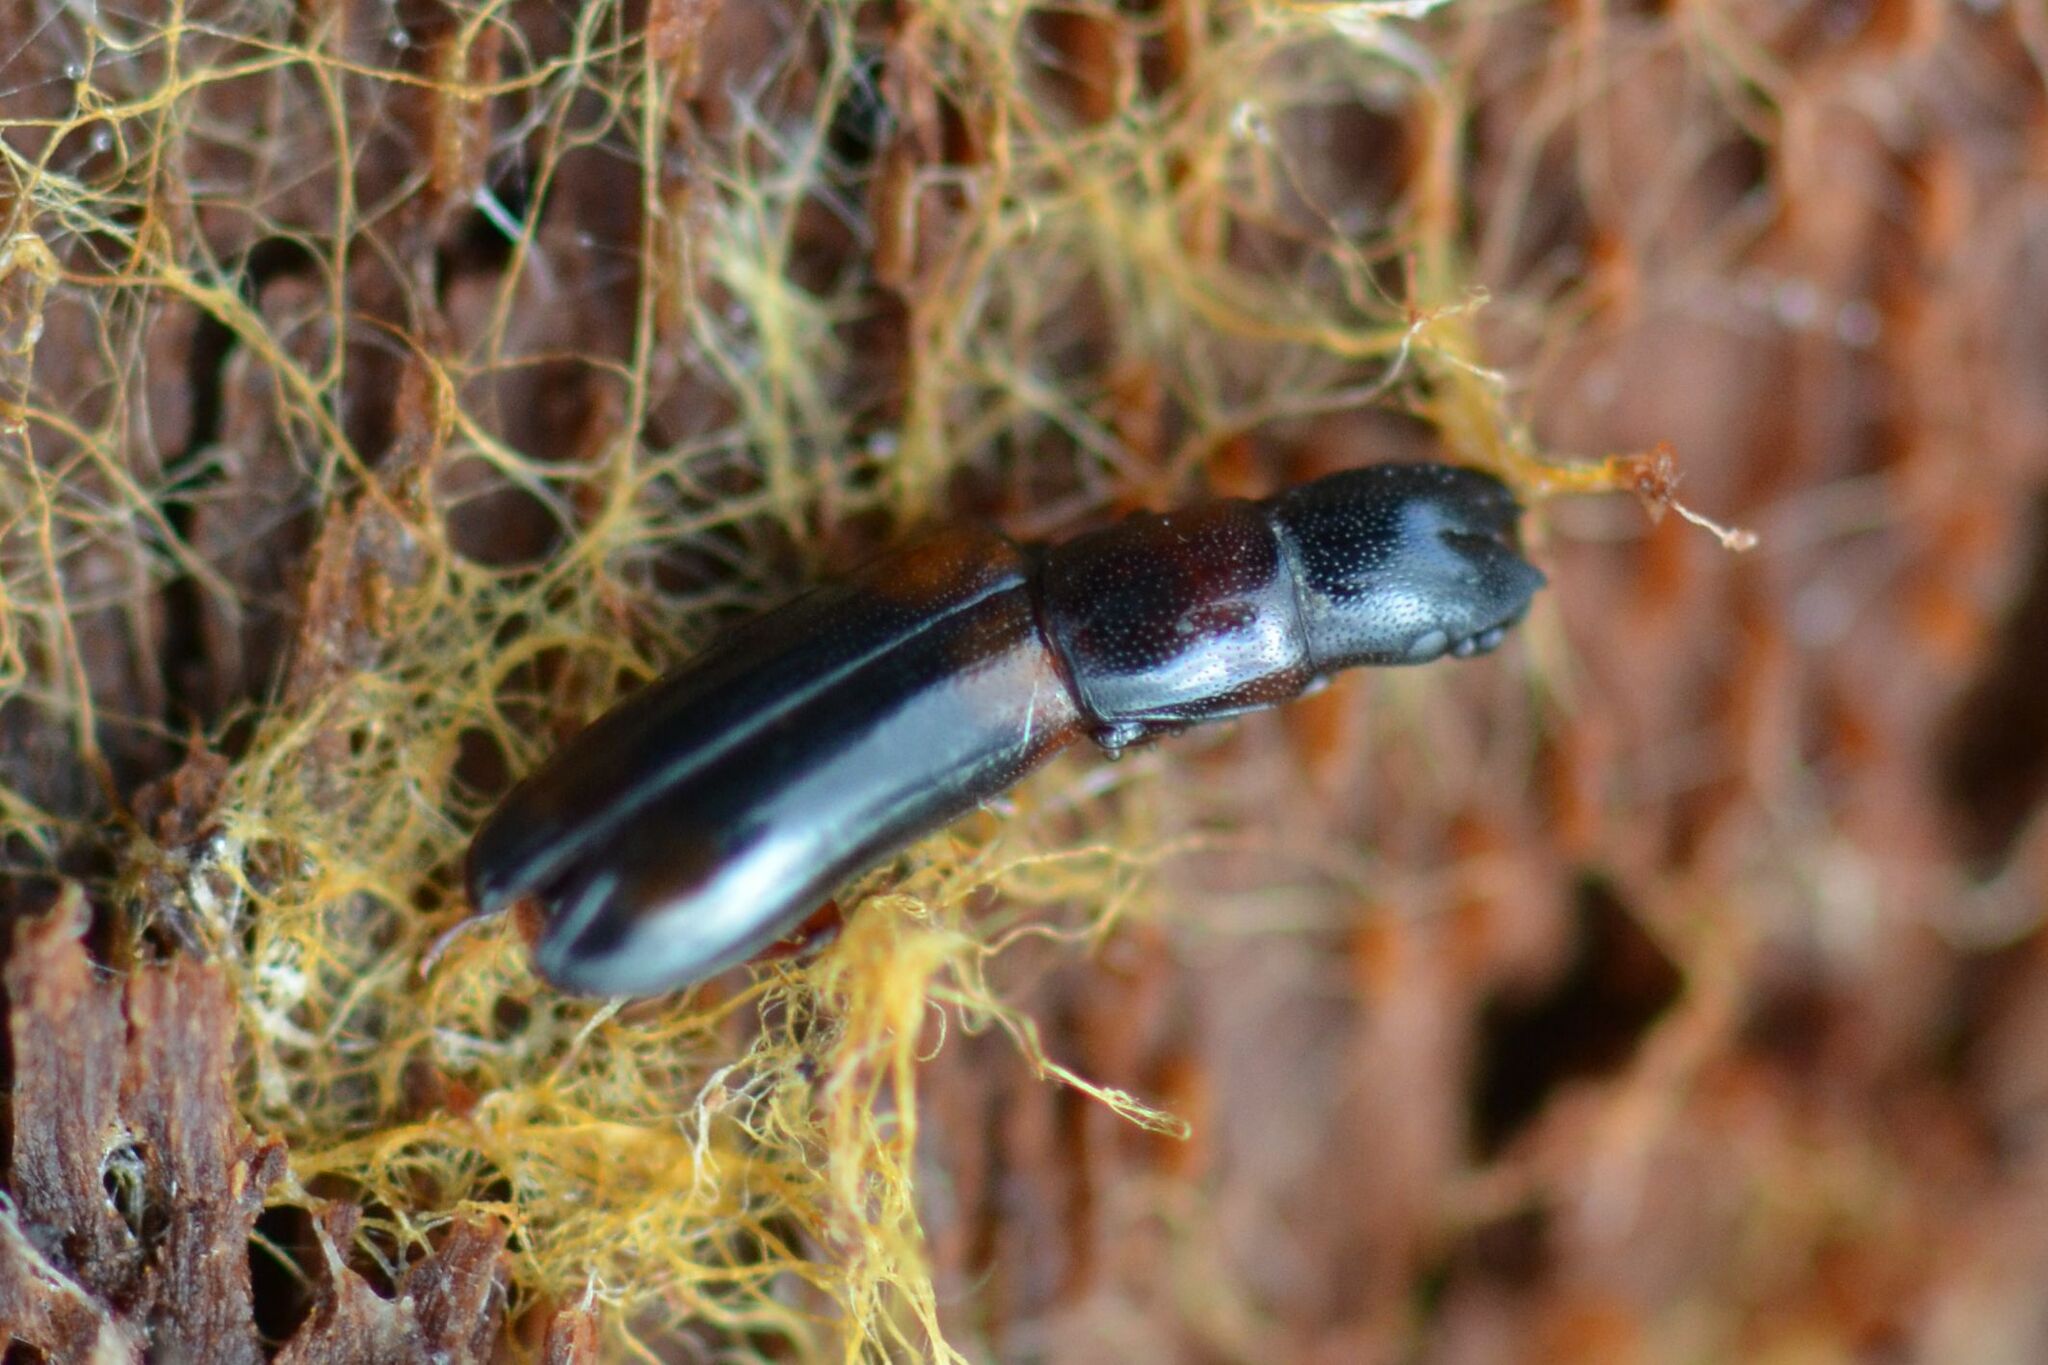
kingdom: Animalia
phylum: Arthropoda
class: Insecta
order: Coleoptera
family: Trogossitidae
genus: Nemozoma
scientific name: Nemozoma caucasicum
